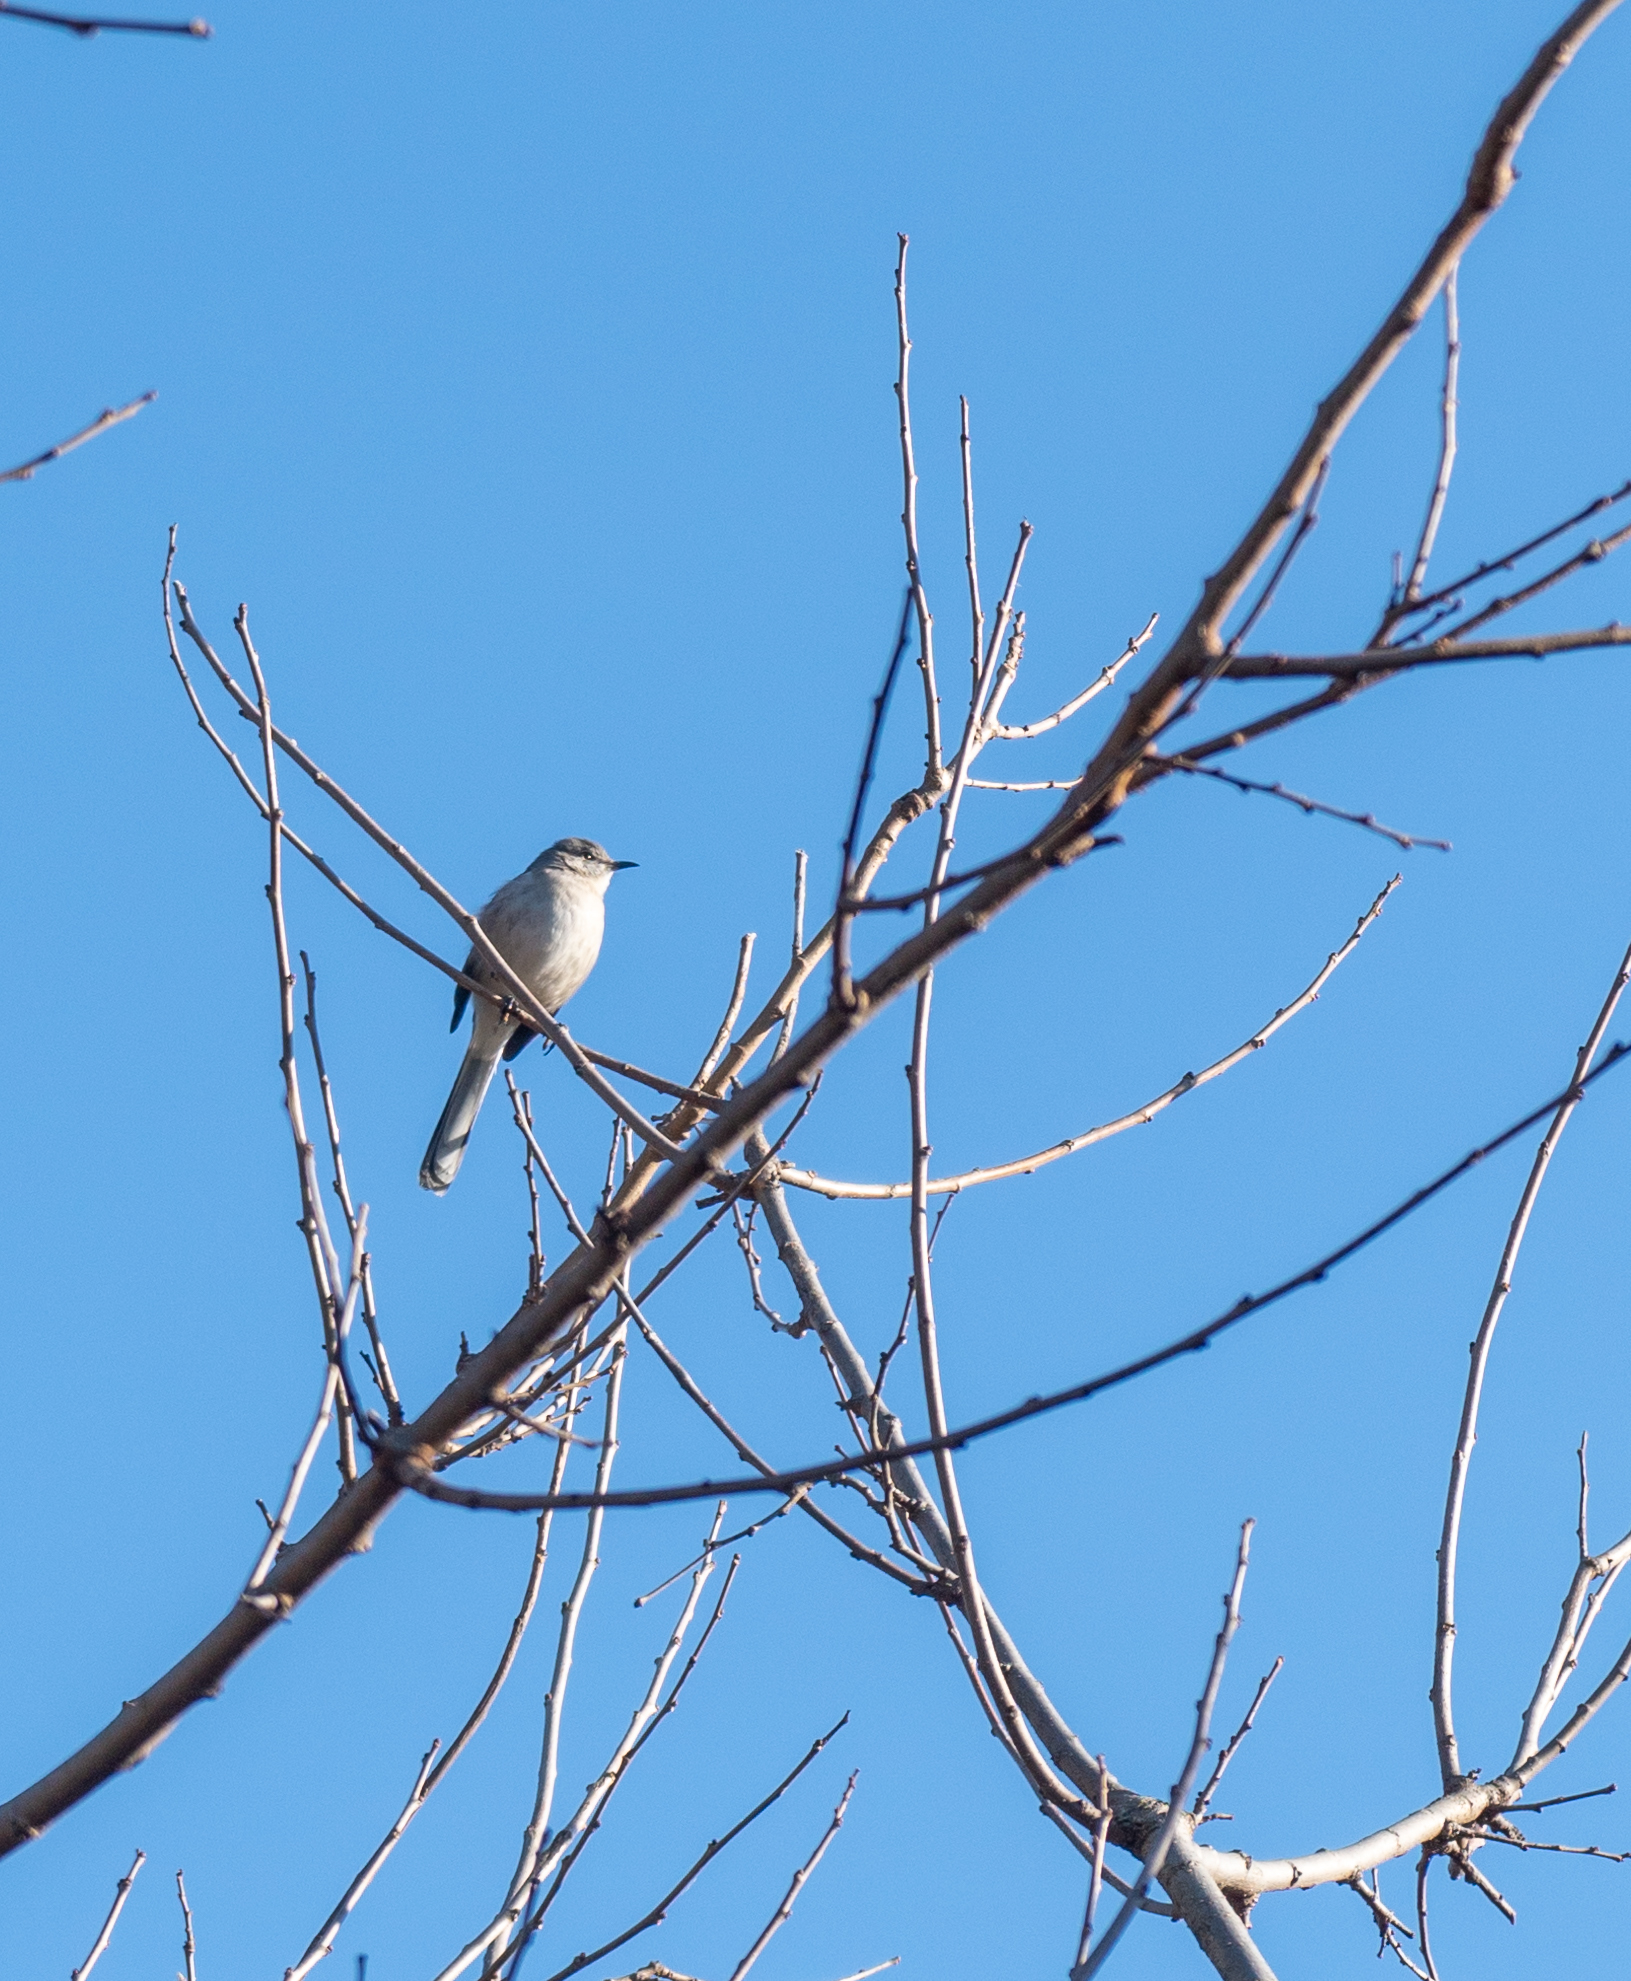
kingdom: Animalia
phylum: Chordata
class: Aves
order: Passeriformes
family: Mimidae
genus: Mimus
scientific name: Mimus polyglottos
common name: Northern mockingbird
